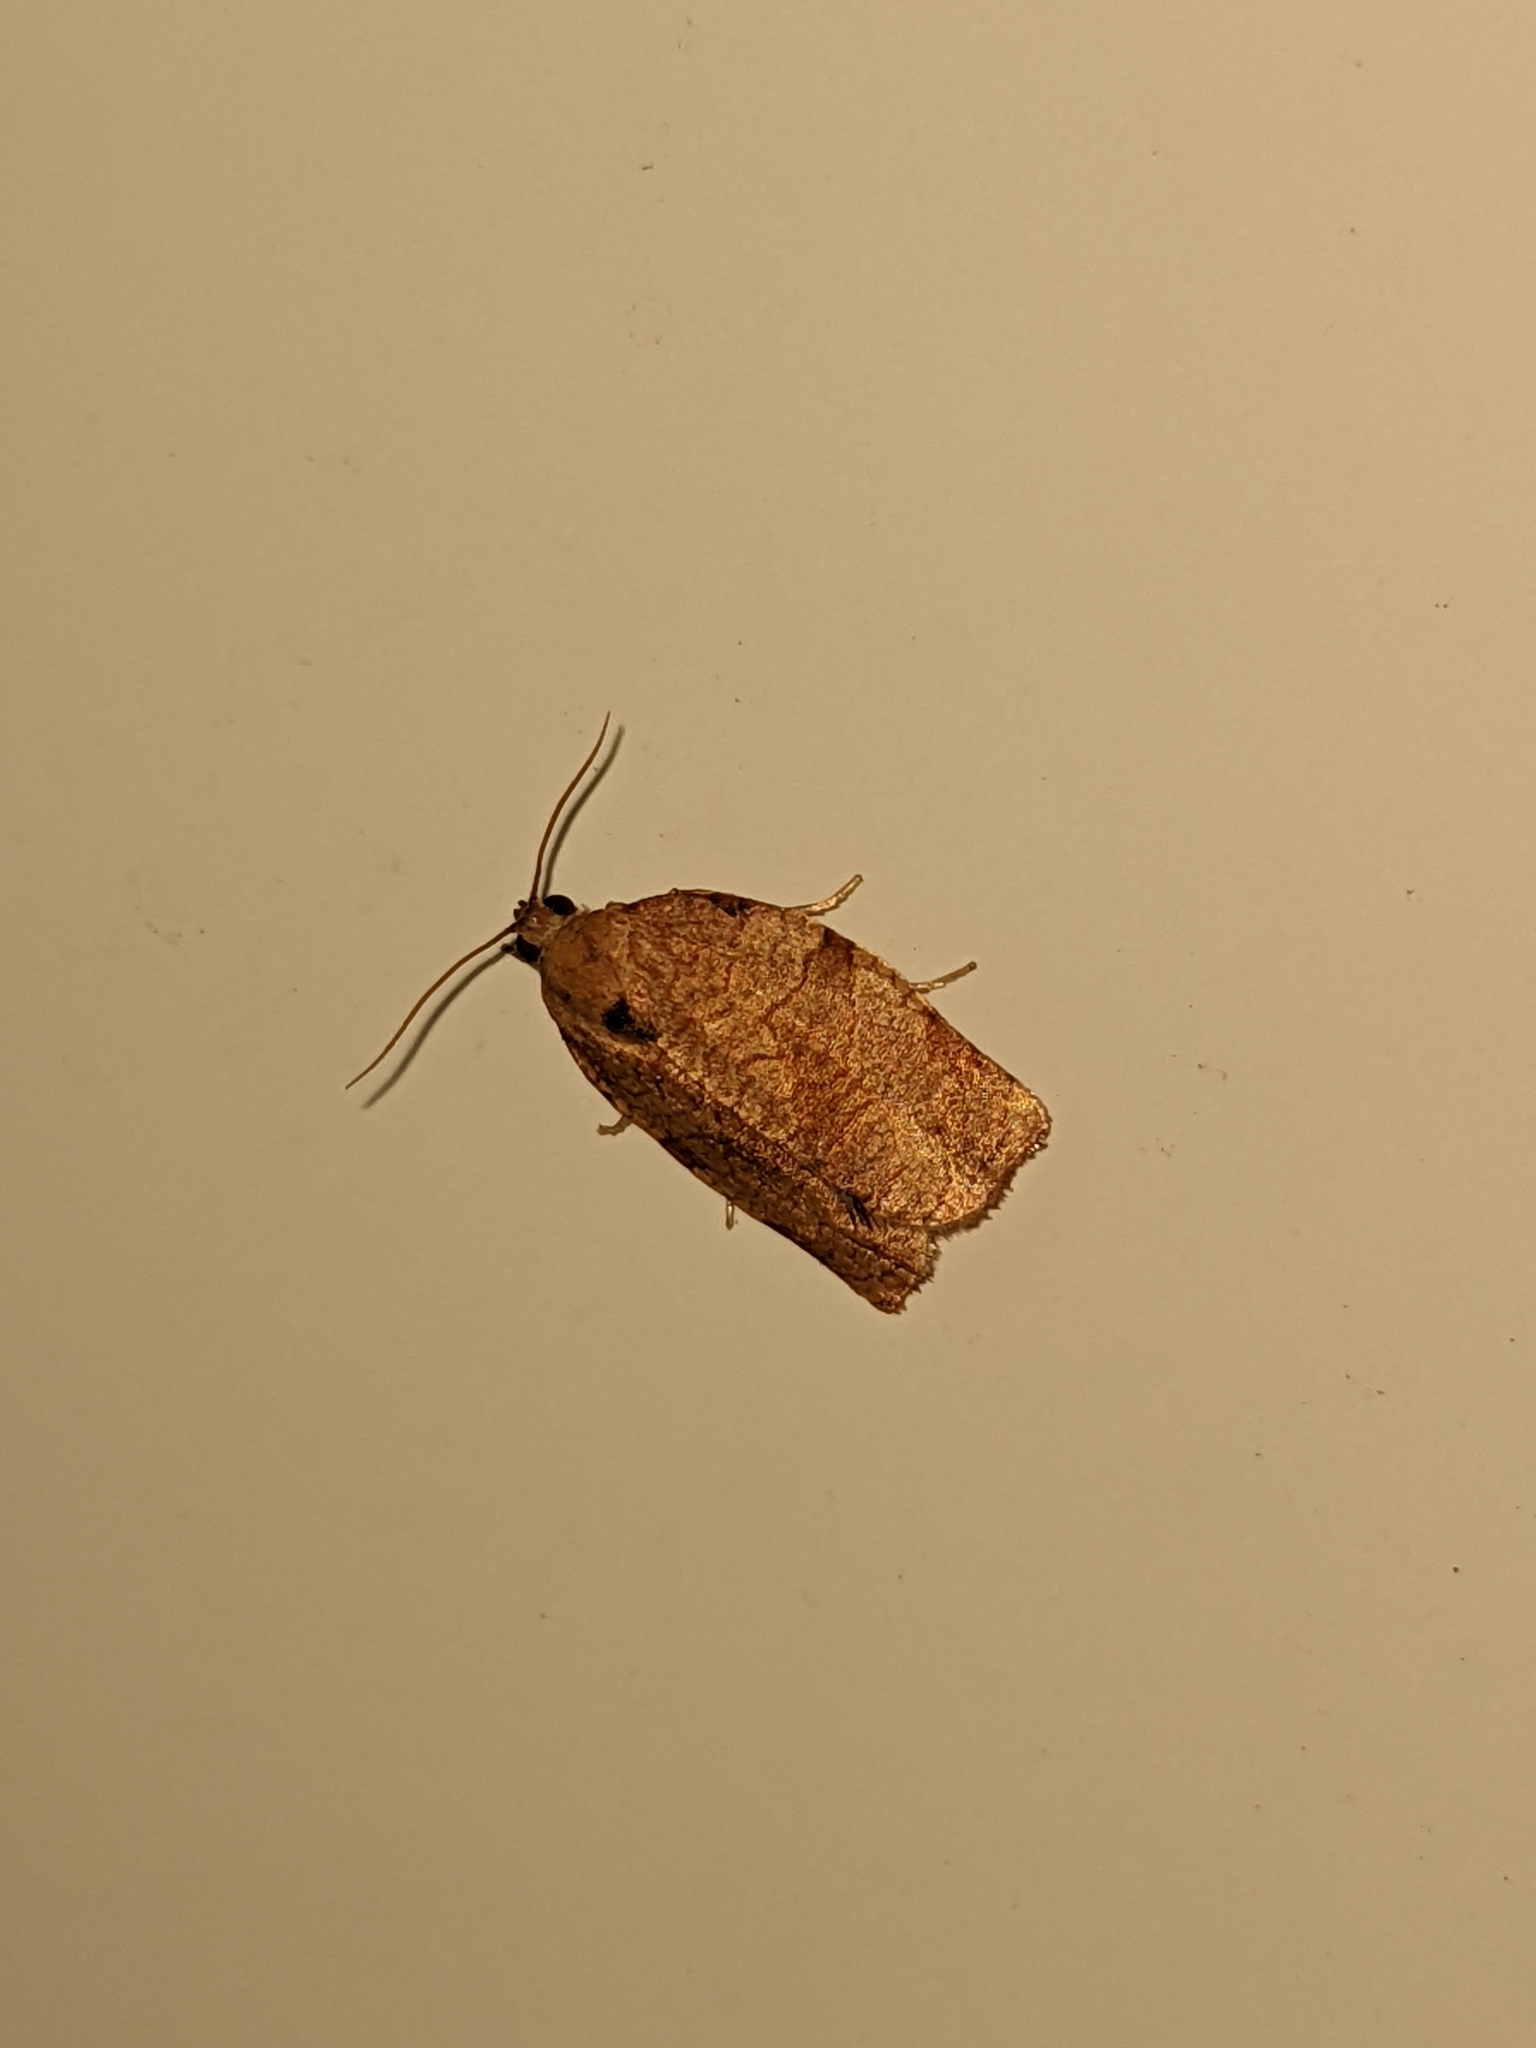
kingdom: Animalia
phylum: Arthropoda
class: Insecta
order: Lepidoptera
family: Tortricidae
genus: Choristoneura
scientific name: Choristoneura rosaceana
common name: Oblique-banded leafroller moth
